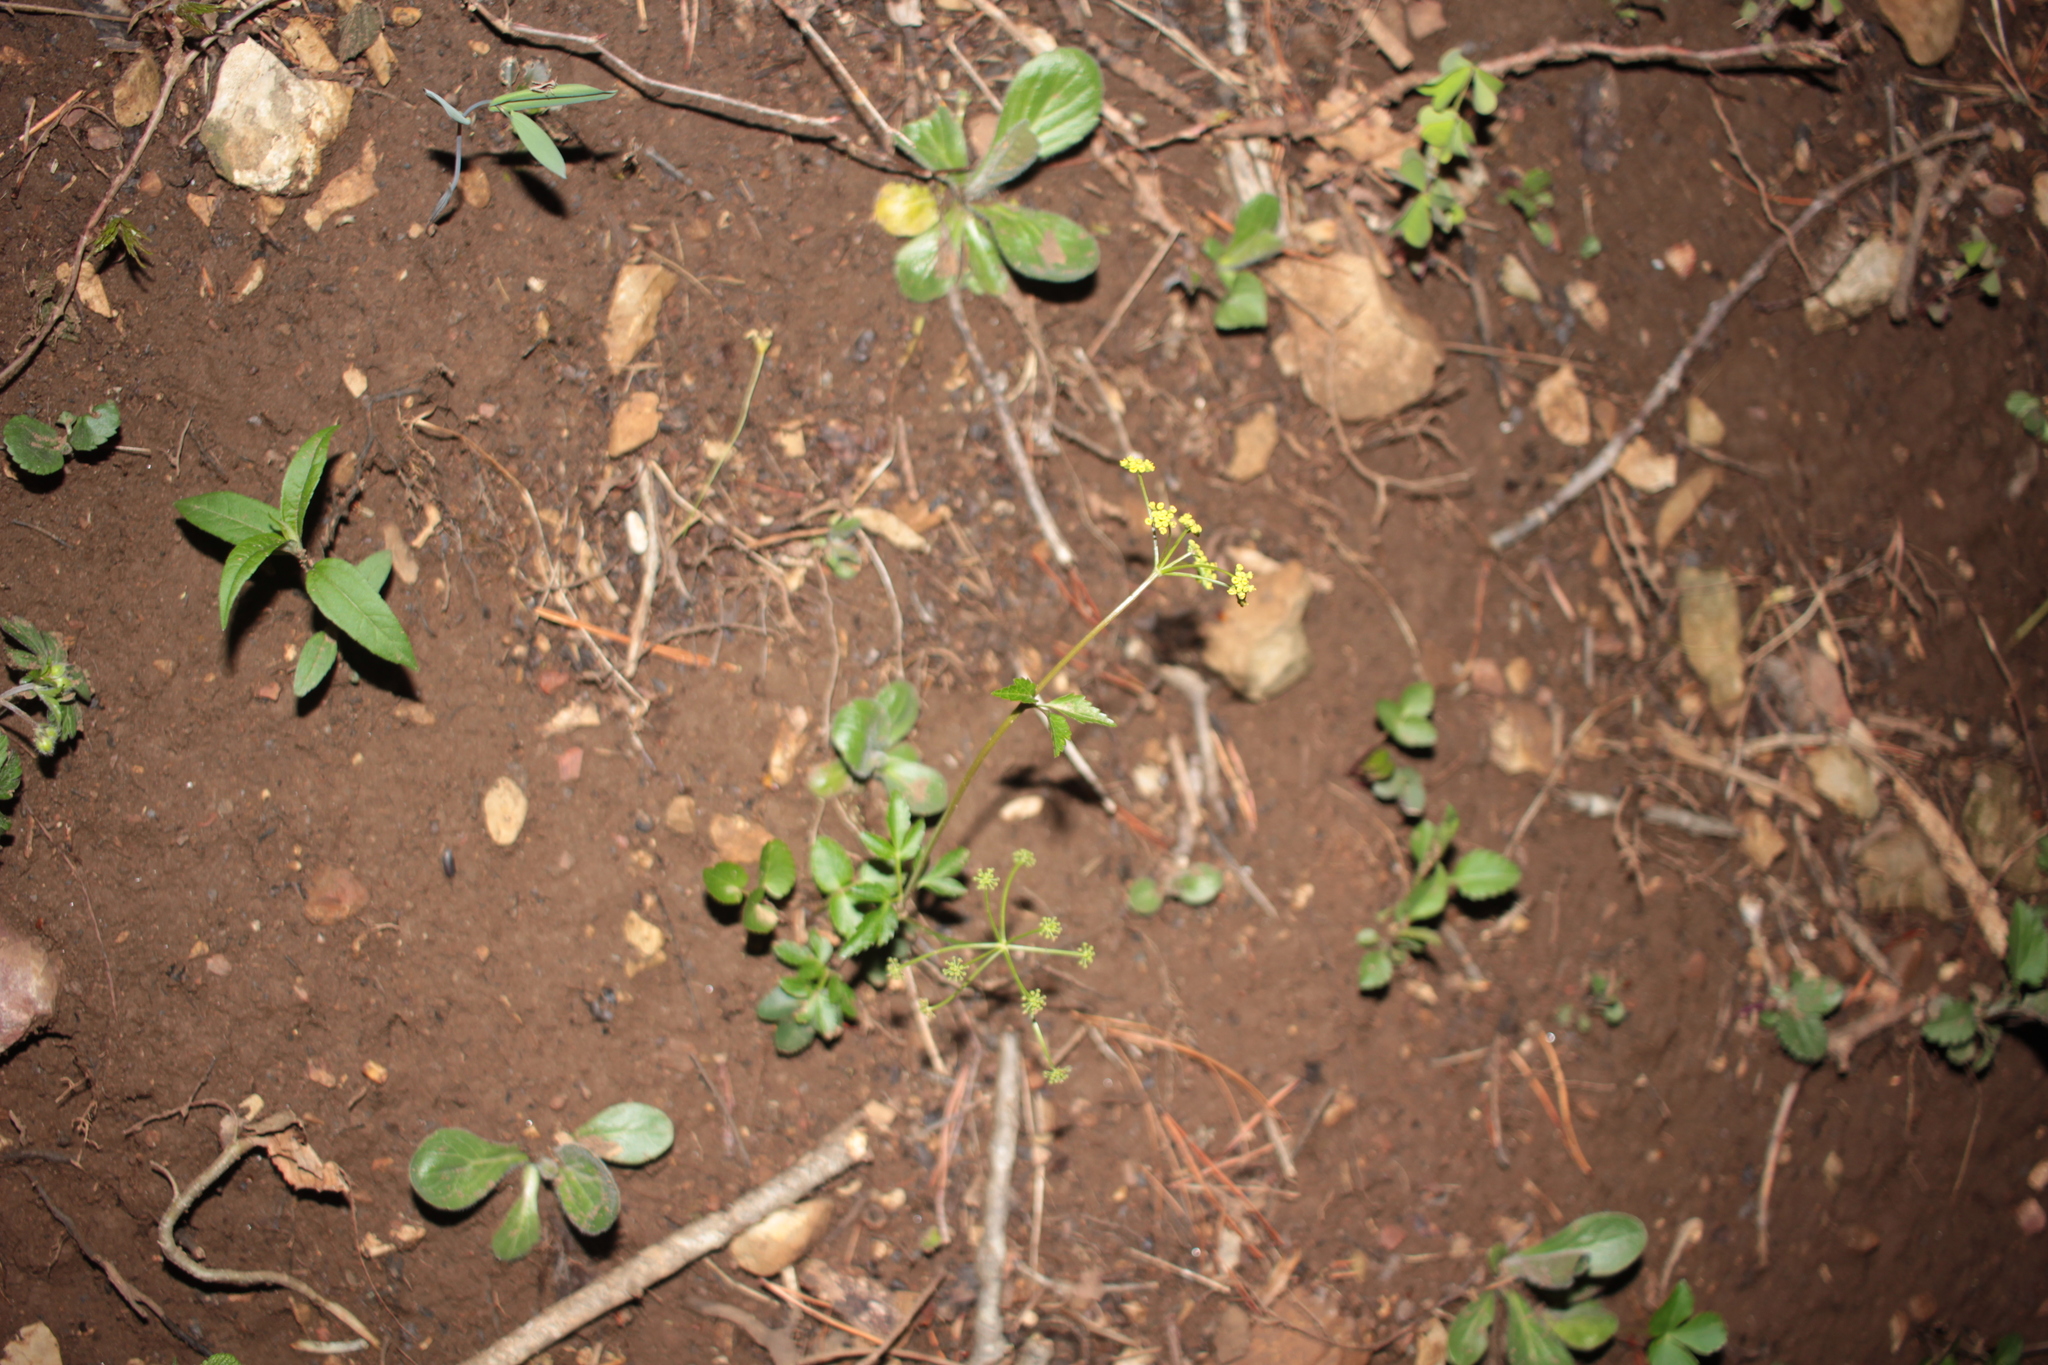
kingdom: Plantae
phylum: Tracheophyta
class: Magnoliopsida
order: Apiales
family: Apiaceae
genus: Zizia
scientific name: Zizia trifoliata
